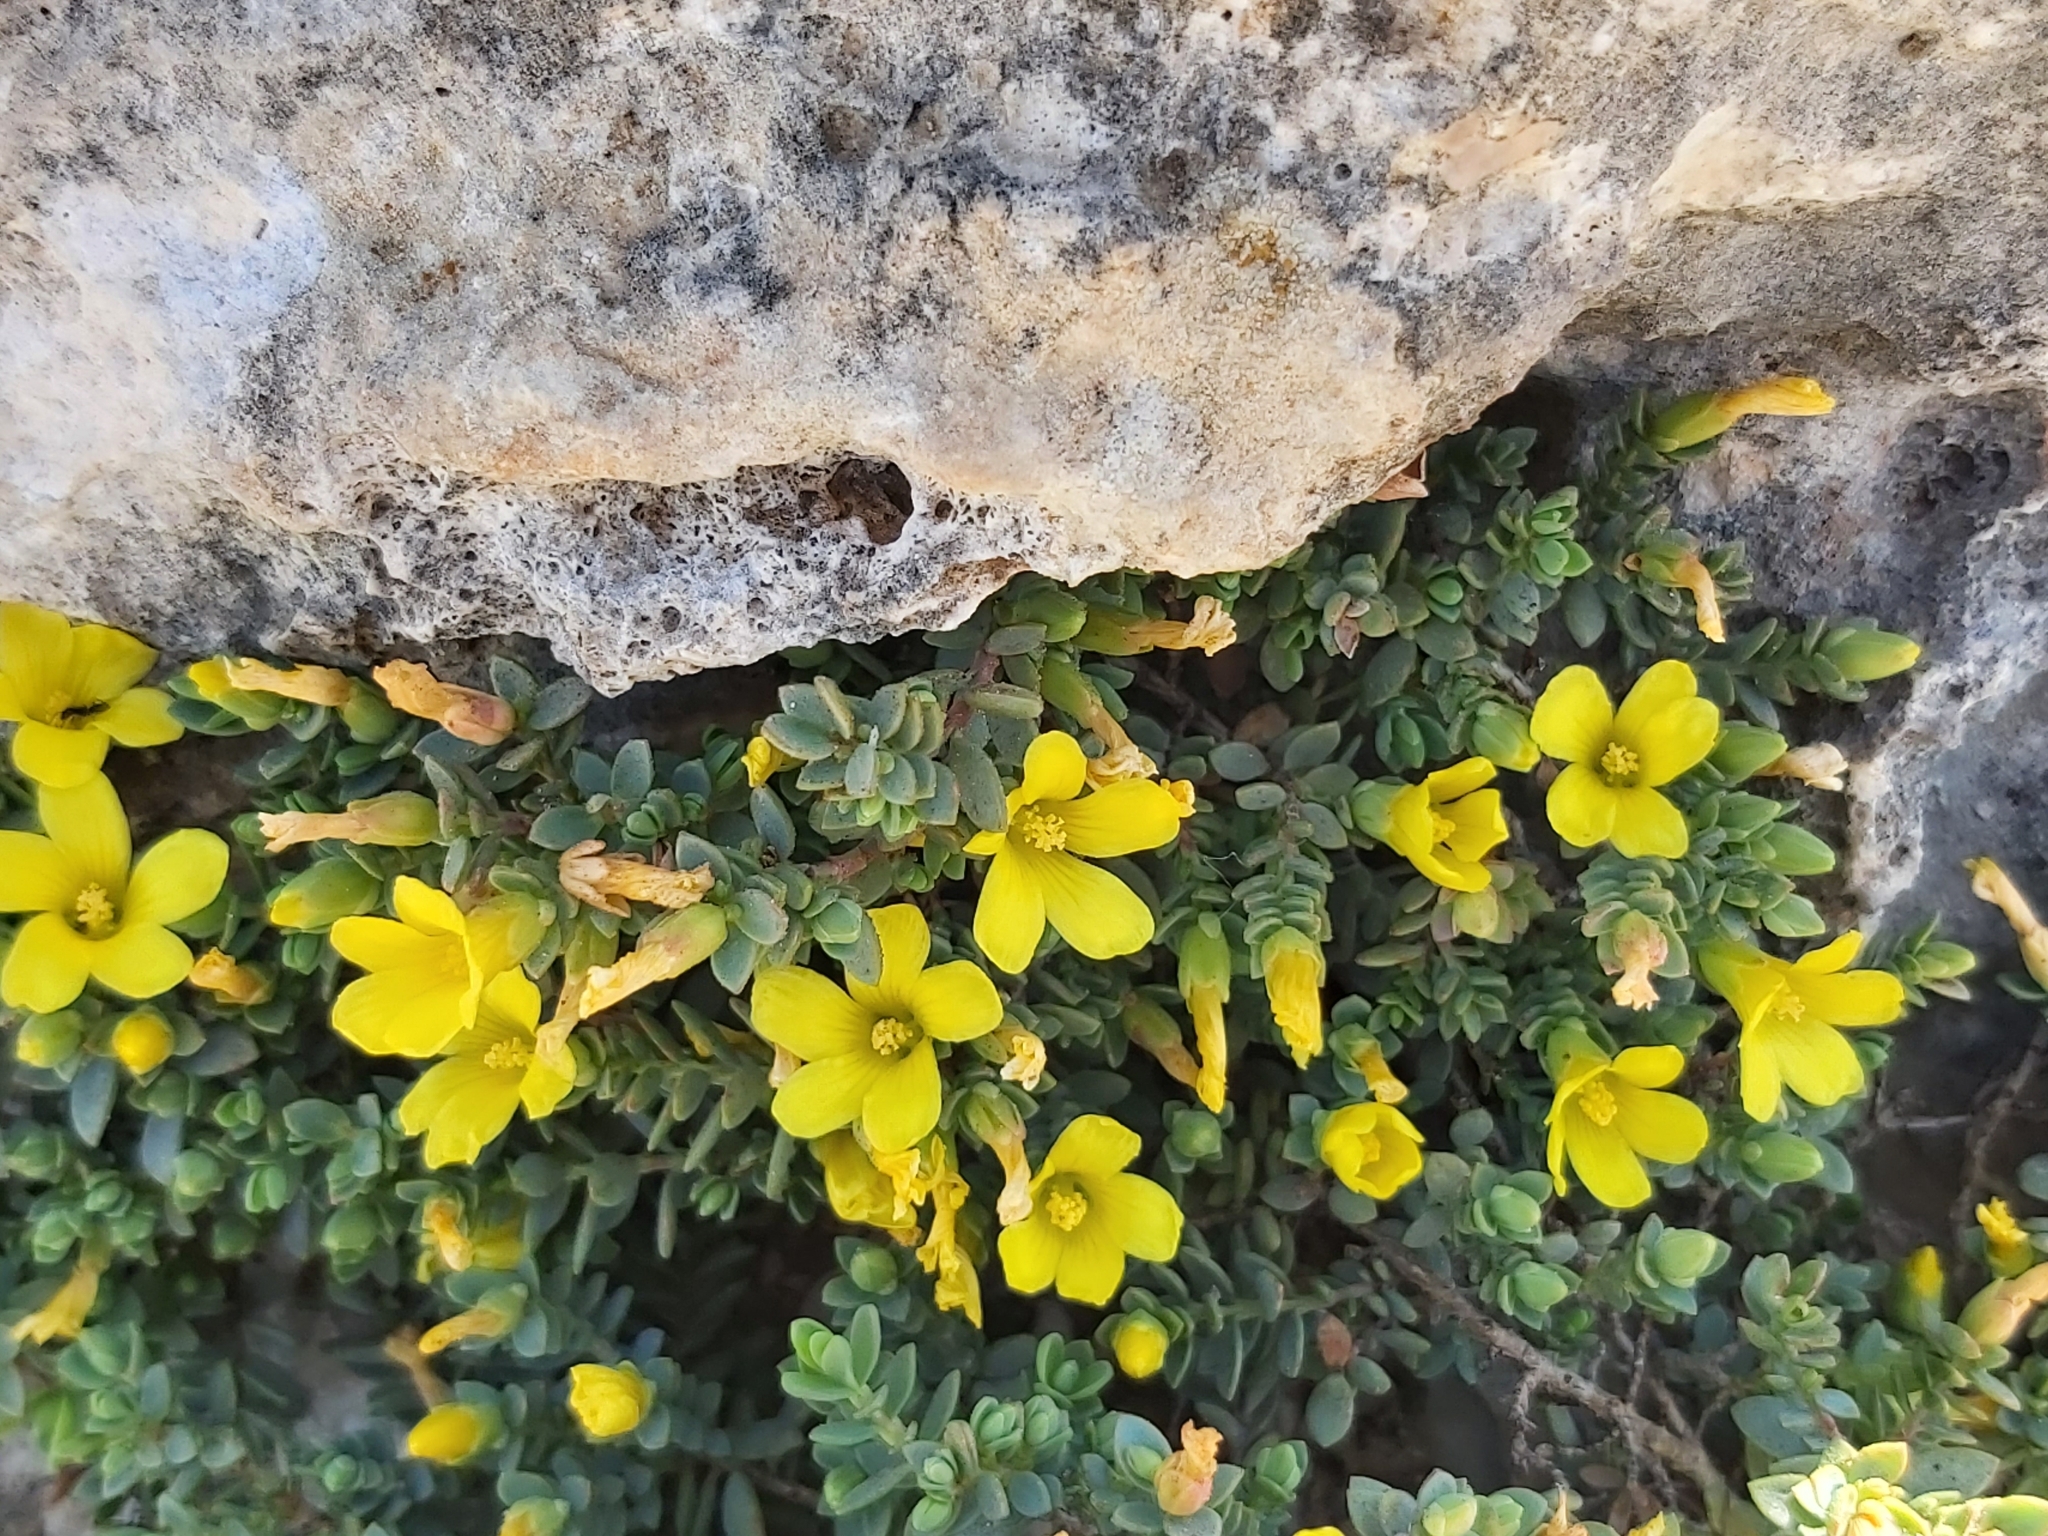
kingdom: Plantae
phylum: Tracheophyta
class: Magnoliopsida
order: Malpighiales
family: Hypericaceae
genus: Hypericum
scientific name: Hypericum aegypticum
